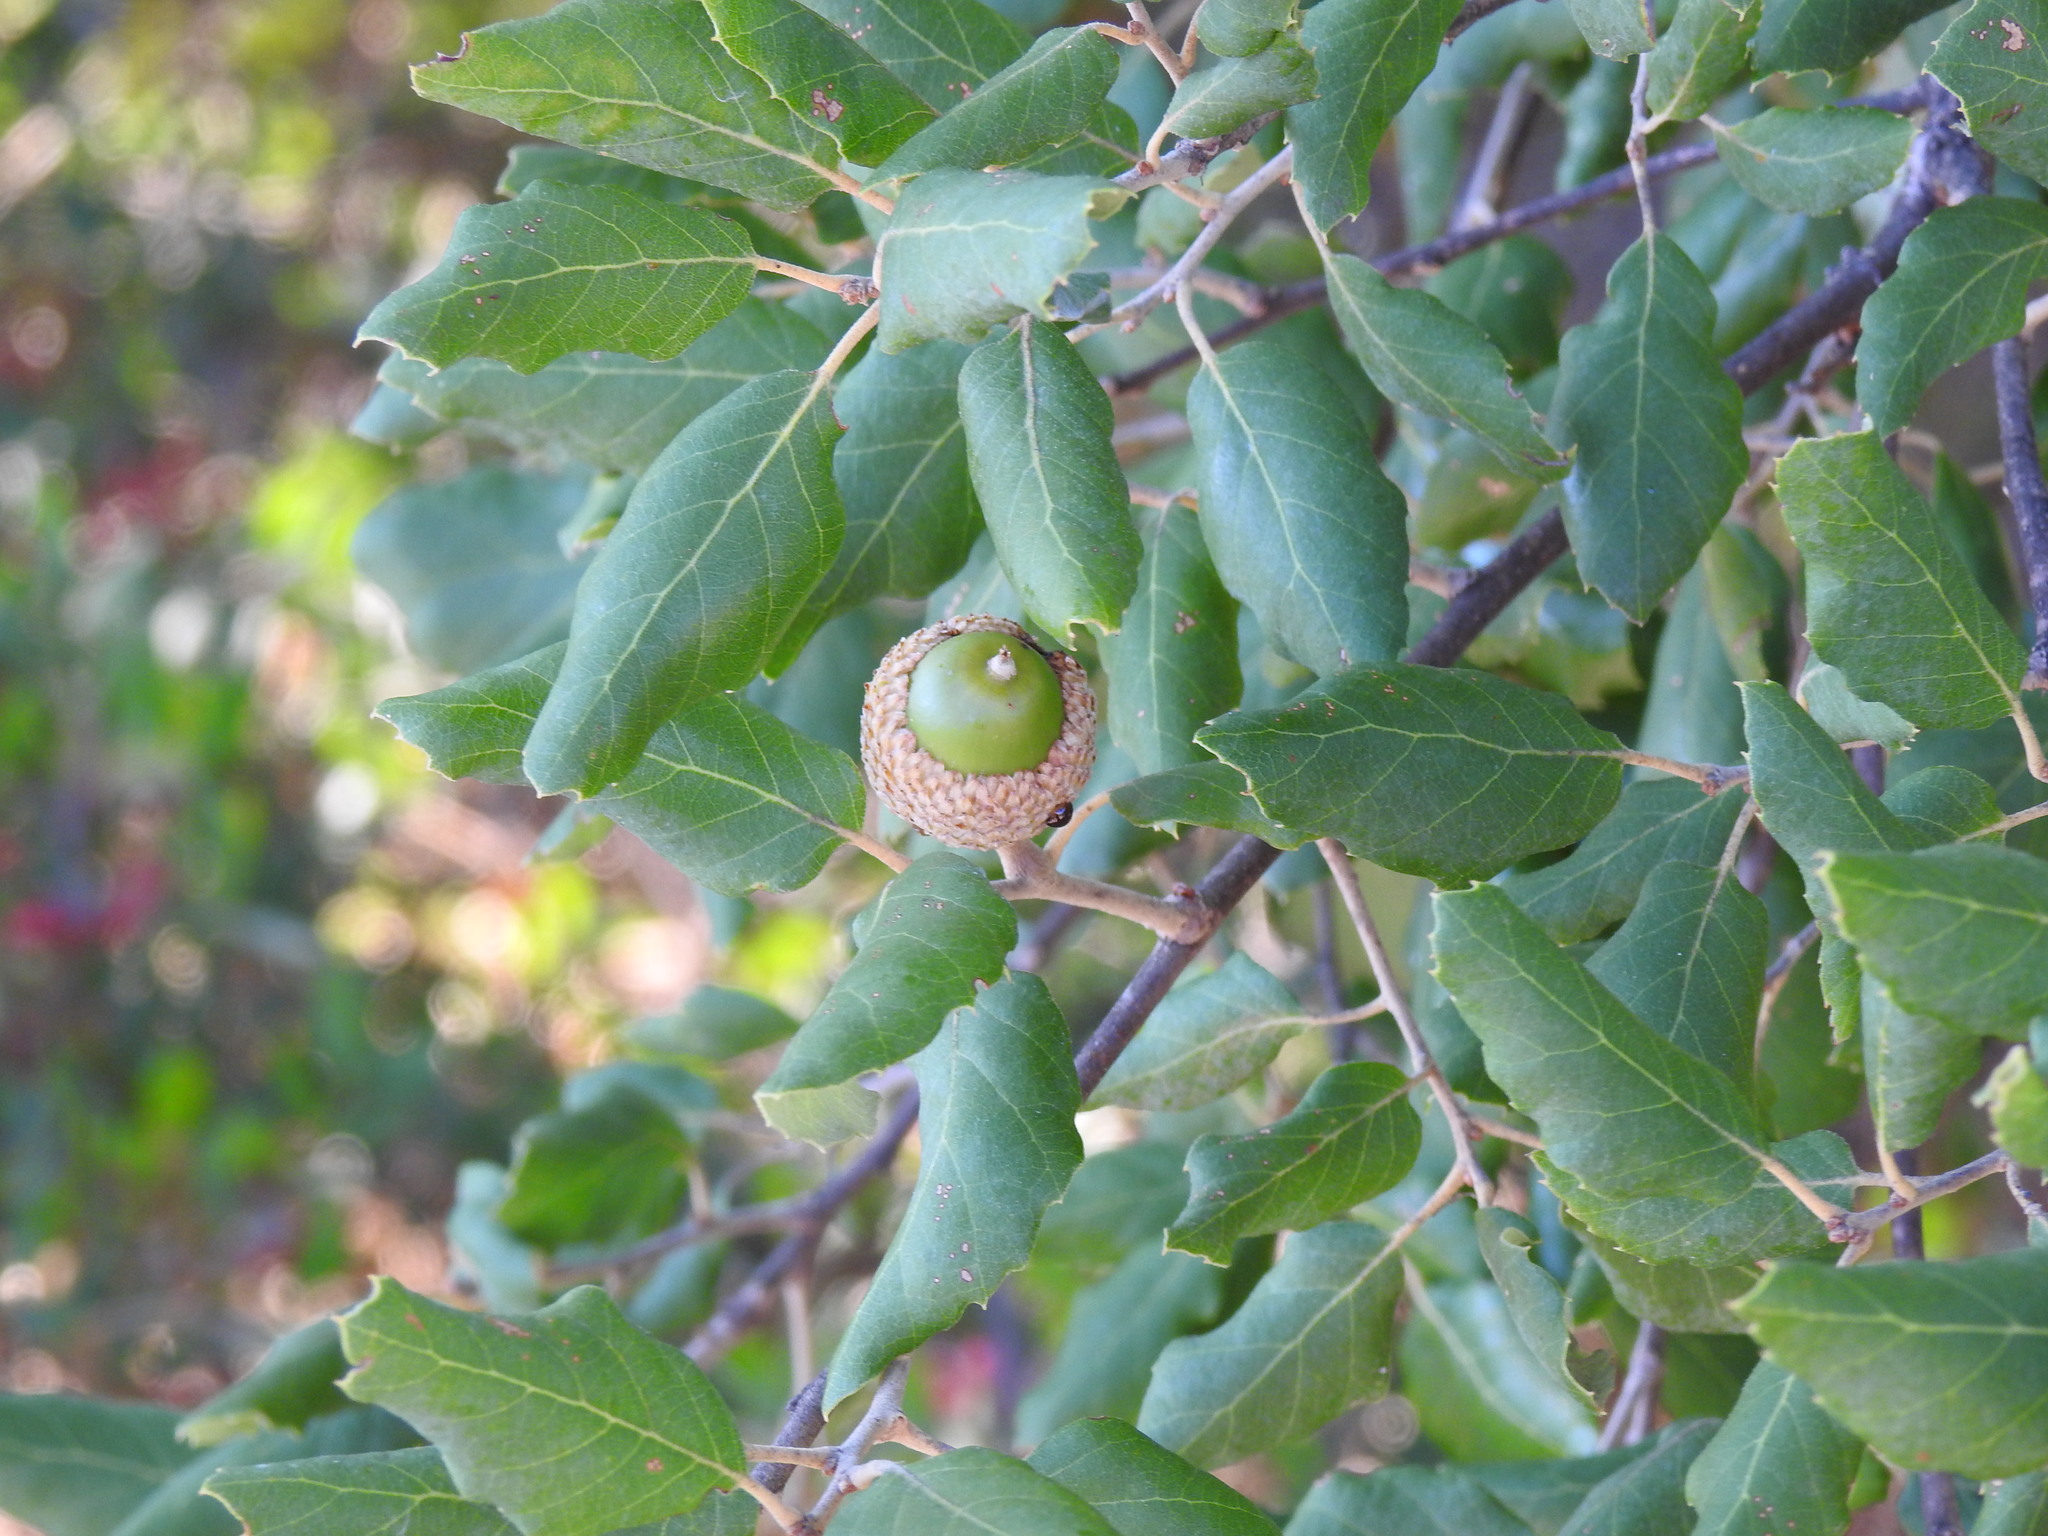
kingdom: Plantae
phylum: Tracheophyta
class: Magnoliopsida
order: Fagales
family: Fagaceae
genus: Quercus
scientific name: Quercus suber
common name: Cork oak
